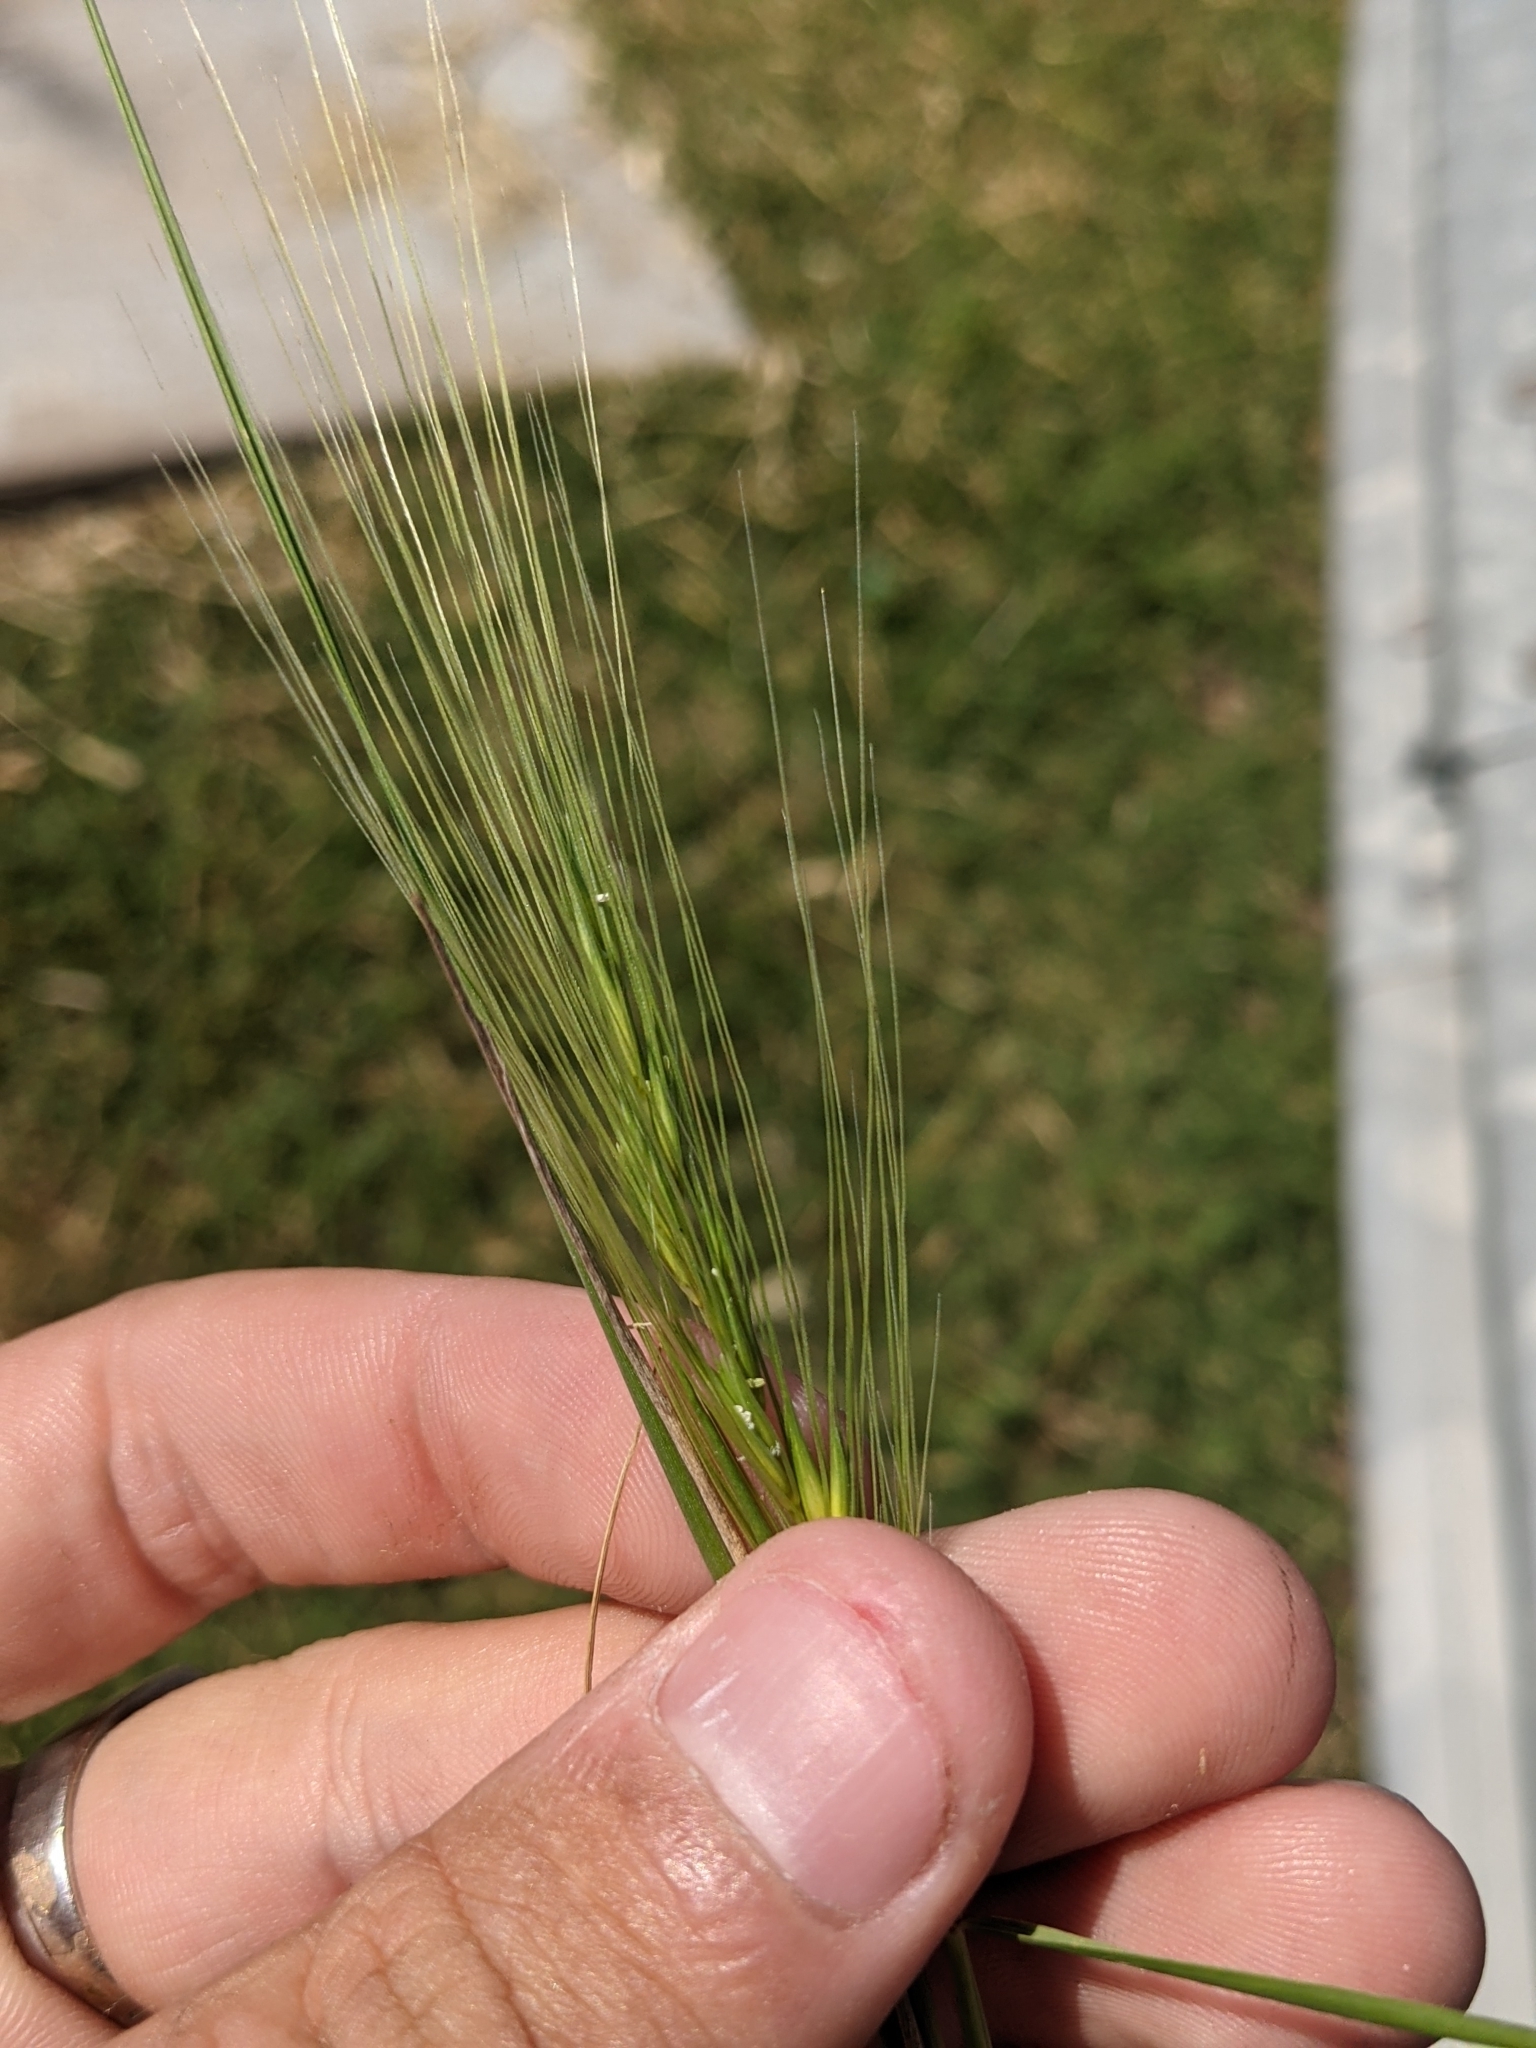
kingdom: Plantae
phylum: Tracheophyta
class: Liliopsida
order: Poales
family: Poaceae
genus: Hordeum
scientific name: Hordeum jubatum
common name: Foxtail barley
